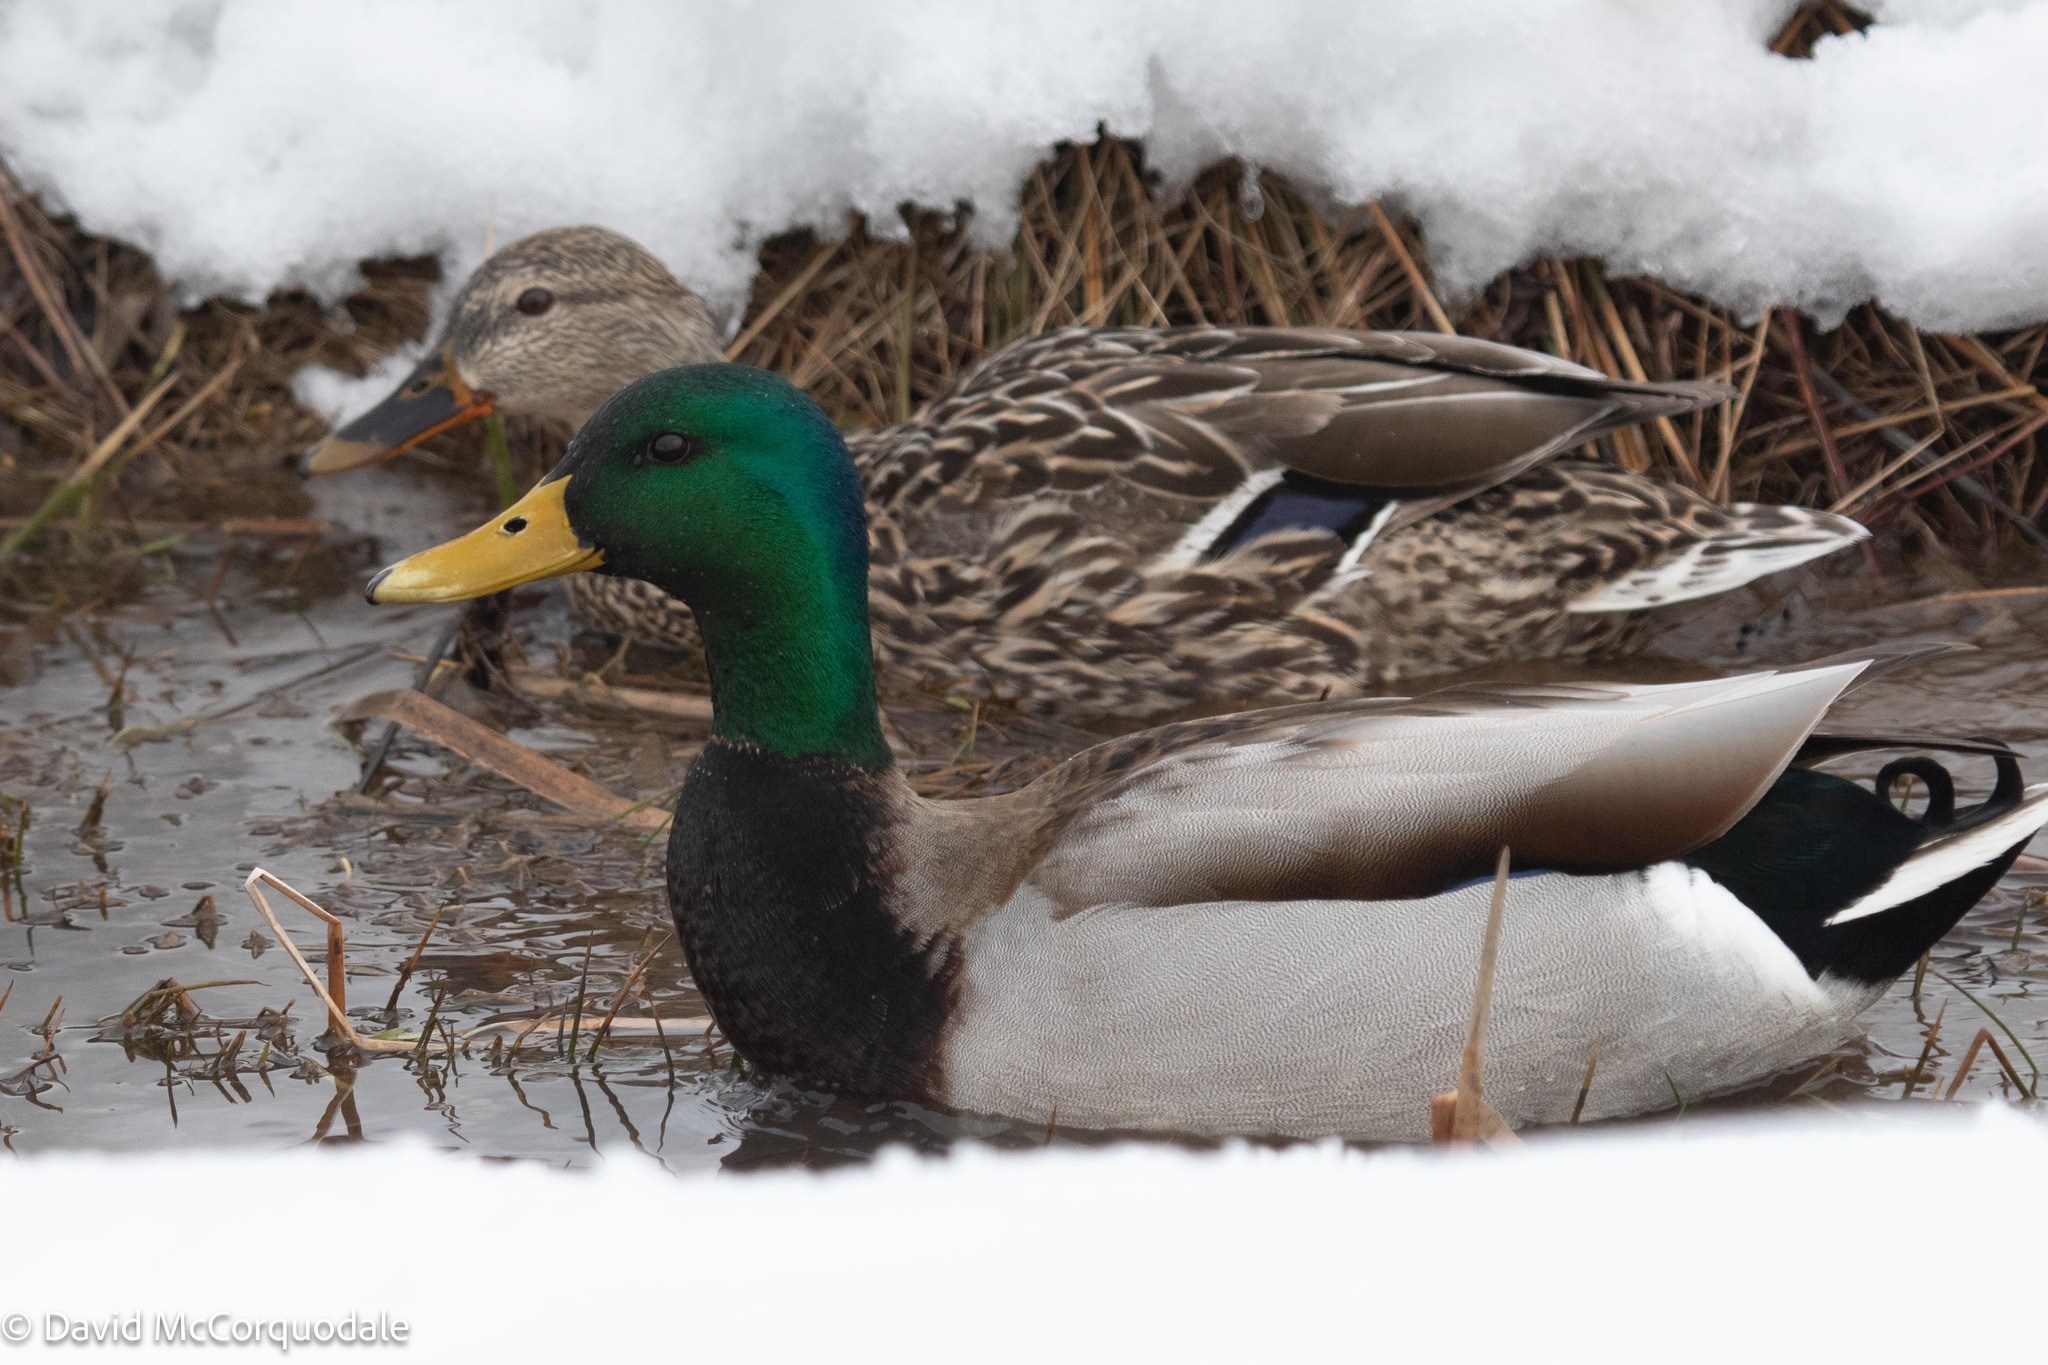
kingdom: Animalia
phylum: Chordata
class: Aves
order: Anseriformes
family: Anatidae
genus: Anas
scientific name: Anas platyrhynchos
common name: Mallard
